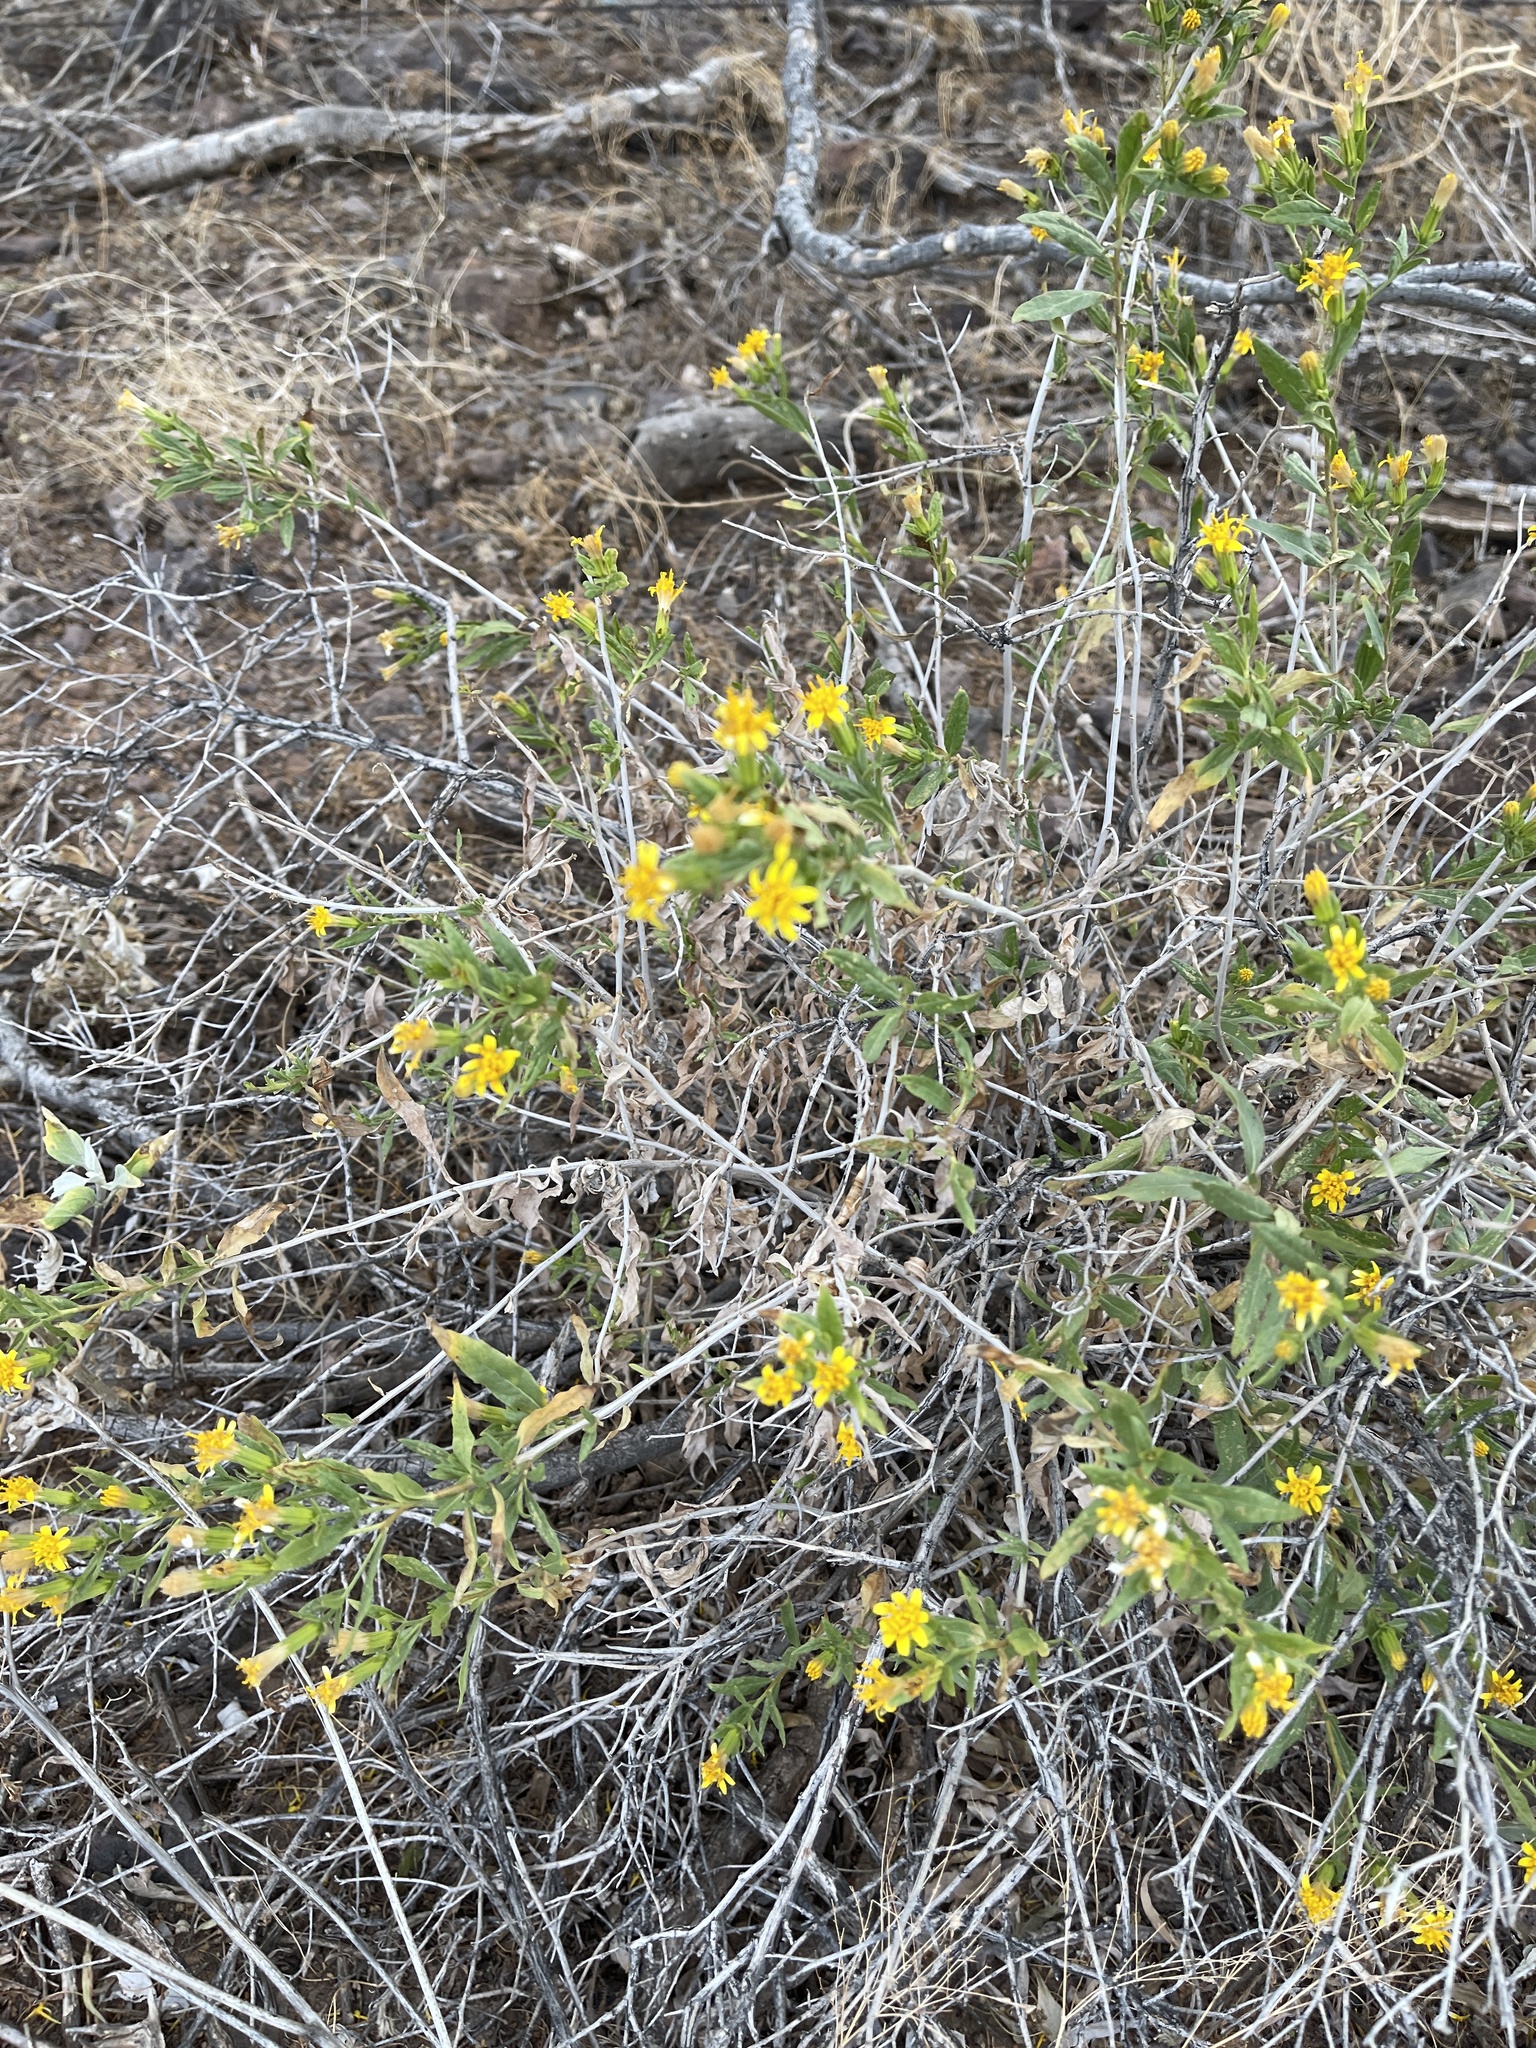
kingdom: Plantae
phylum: Tracheophyta
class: Magnoliopsida
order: Asterales
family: Asteraceae
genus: Trixis
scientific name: Trixis californica
